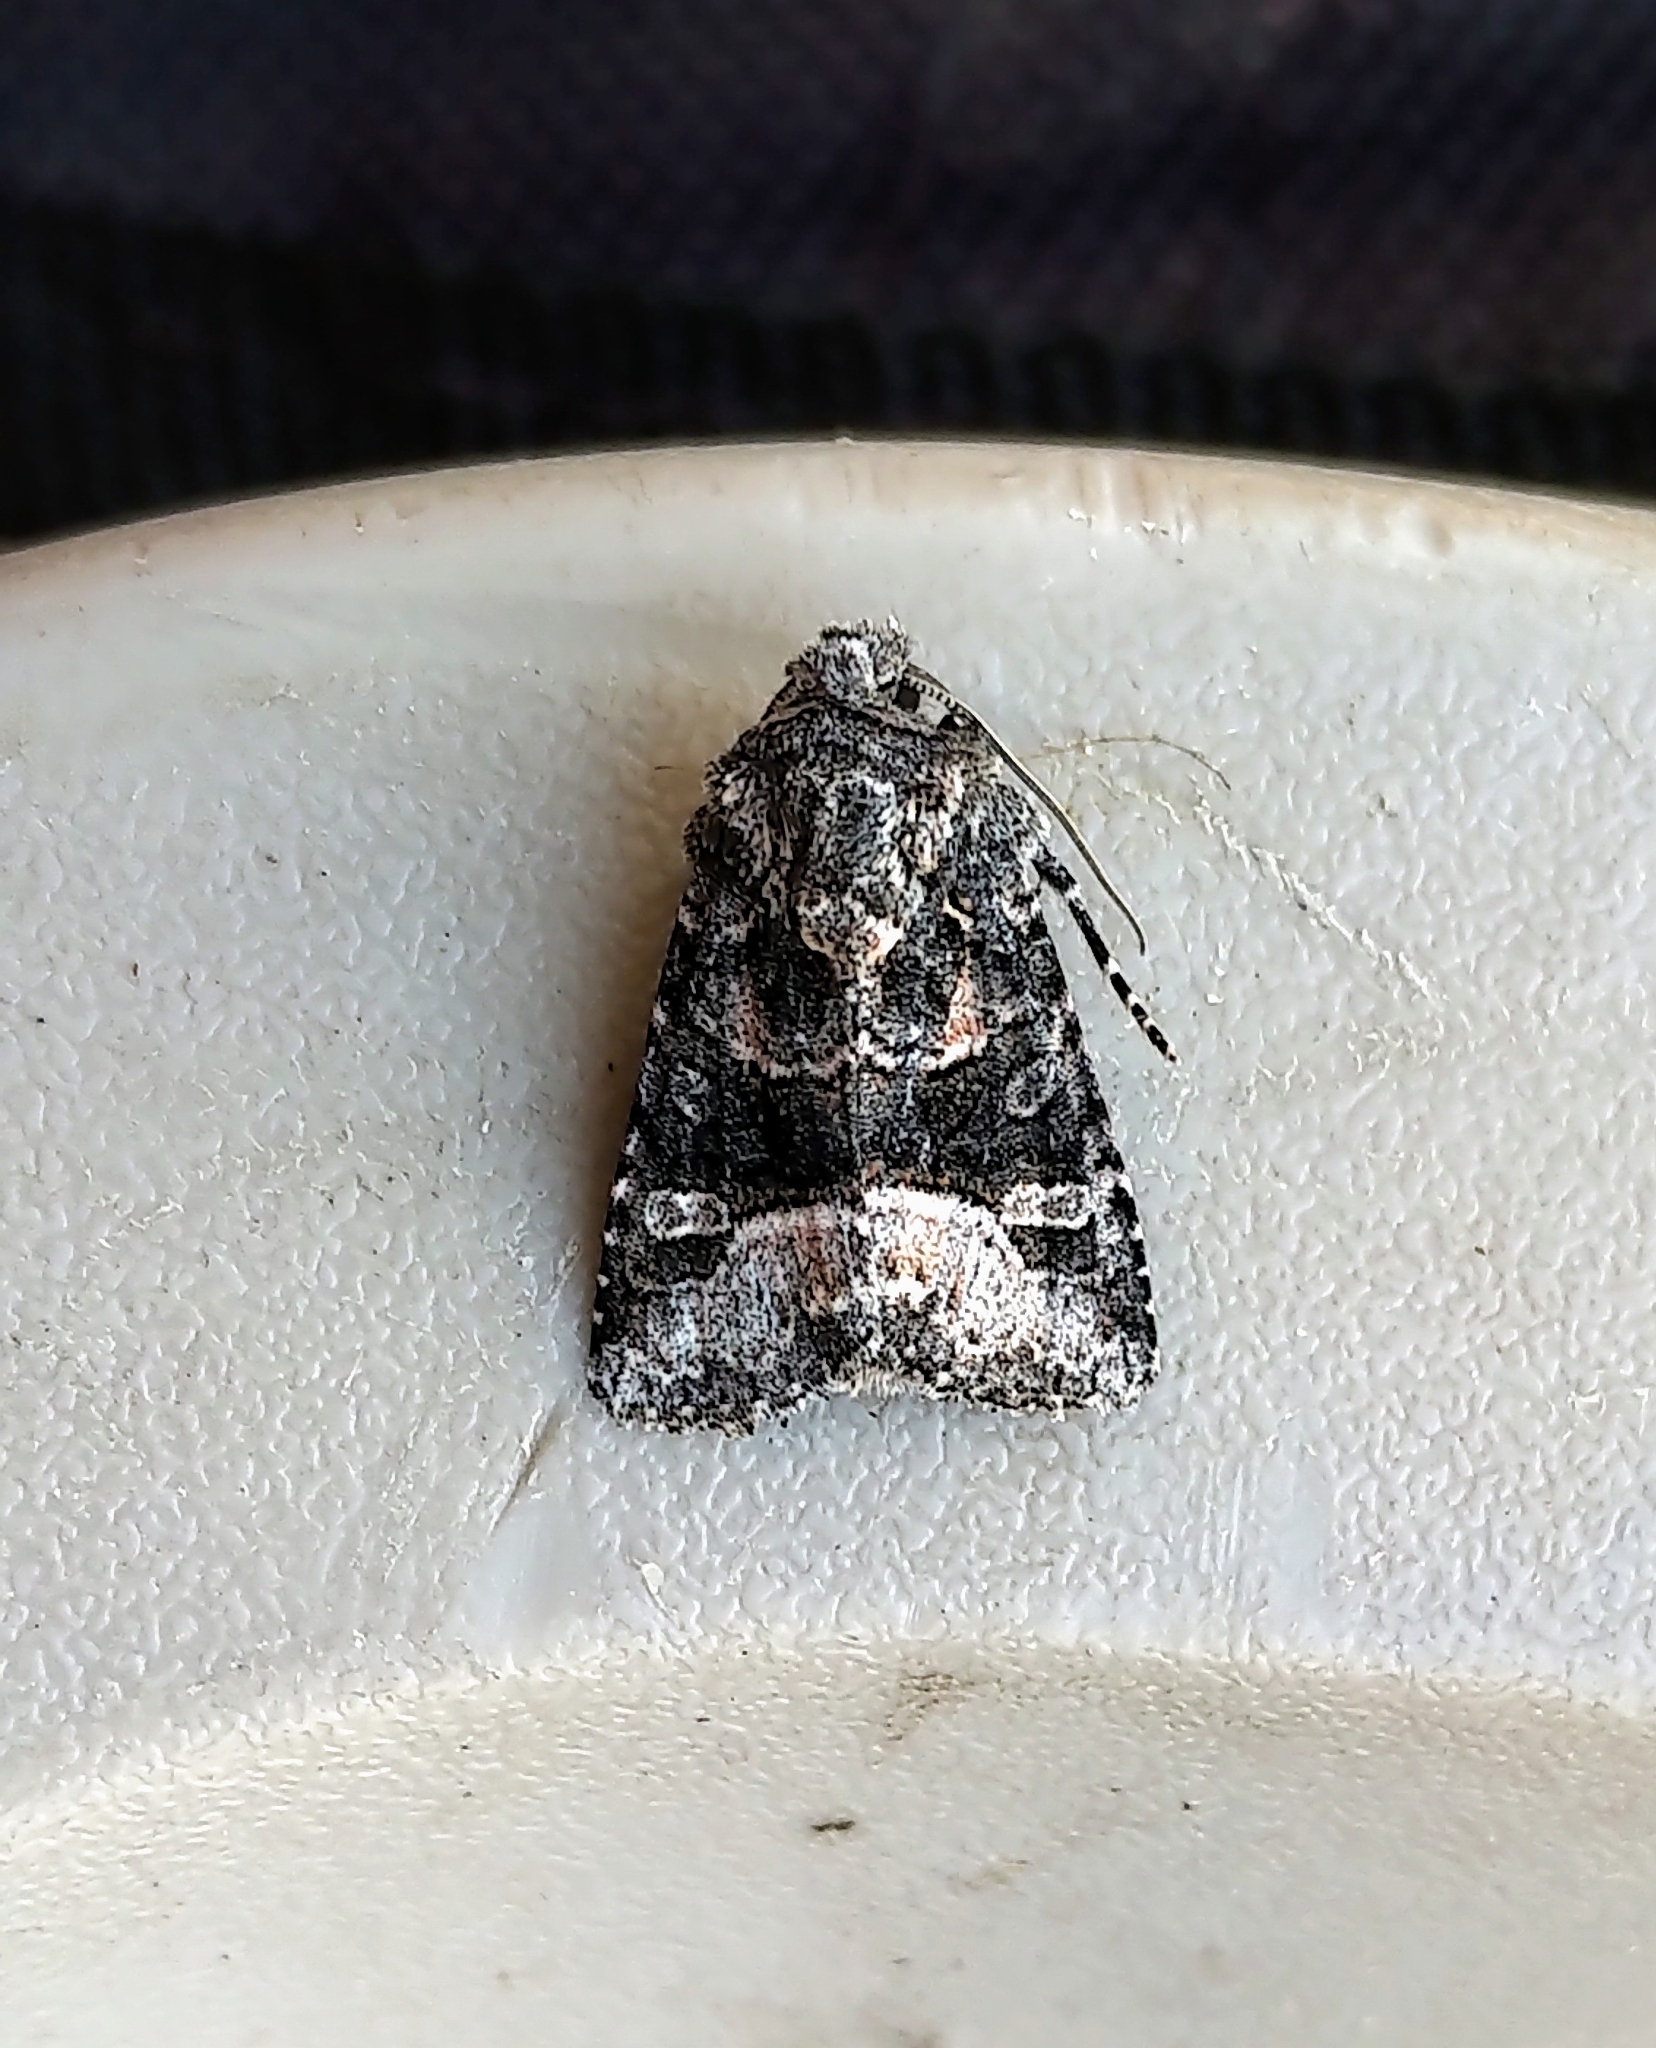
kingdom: Animalia
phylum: Arthropoda
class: Insecta
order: Lepidoptera
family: Noctuidae
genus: Lacinipolia
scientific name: Lacinipolia olivacea
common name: Olive arches moth
